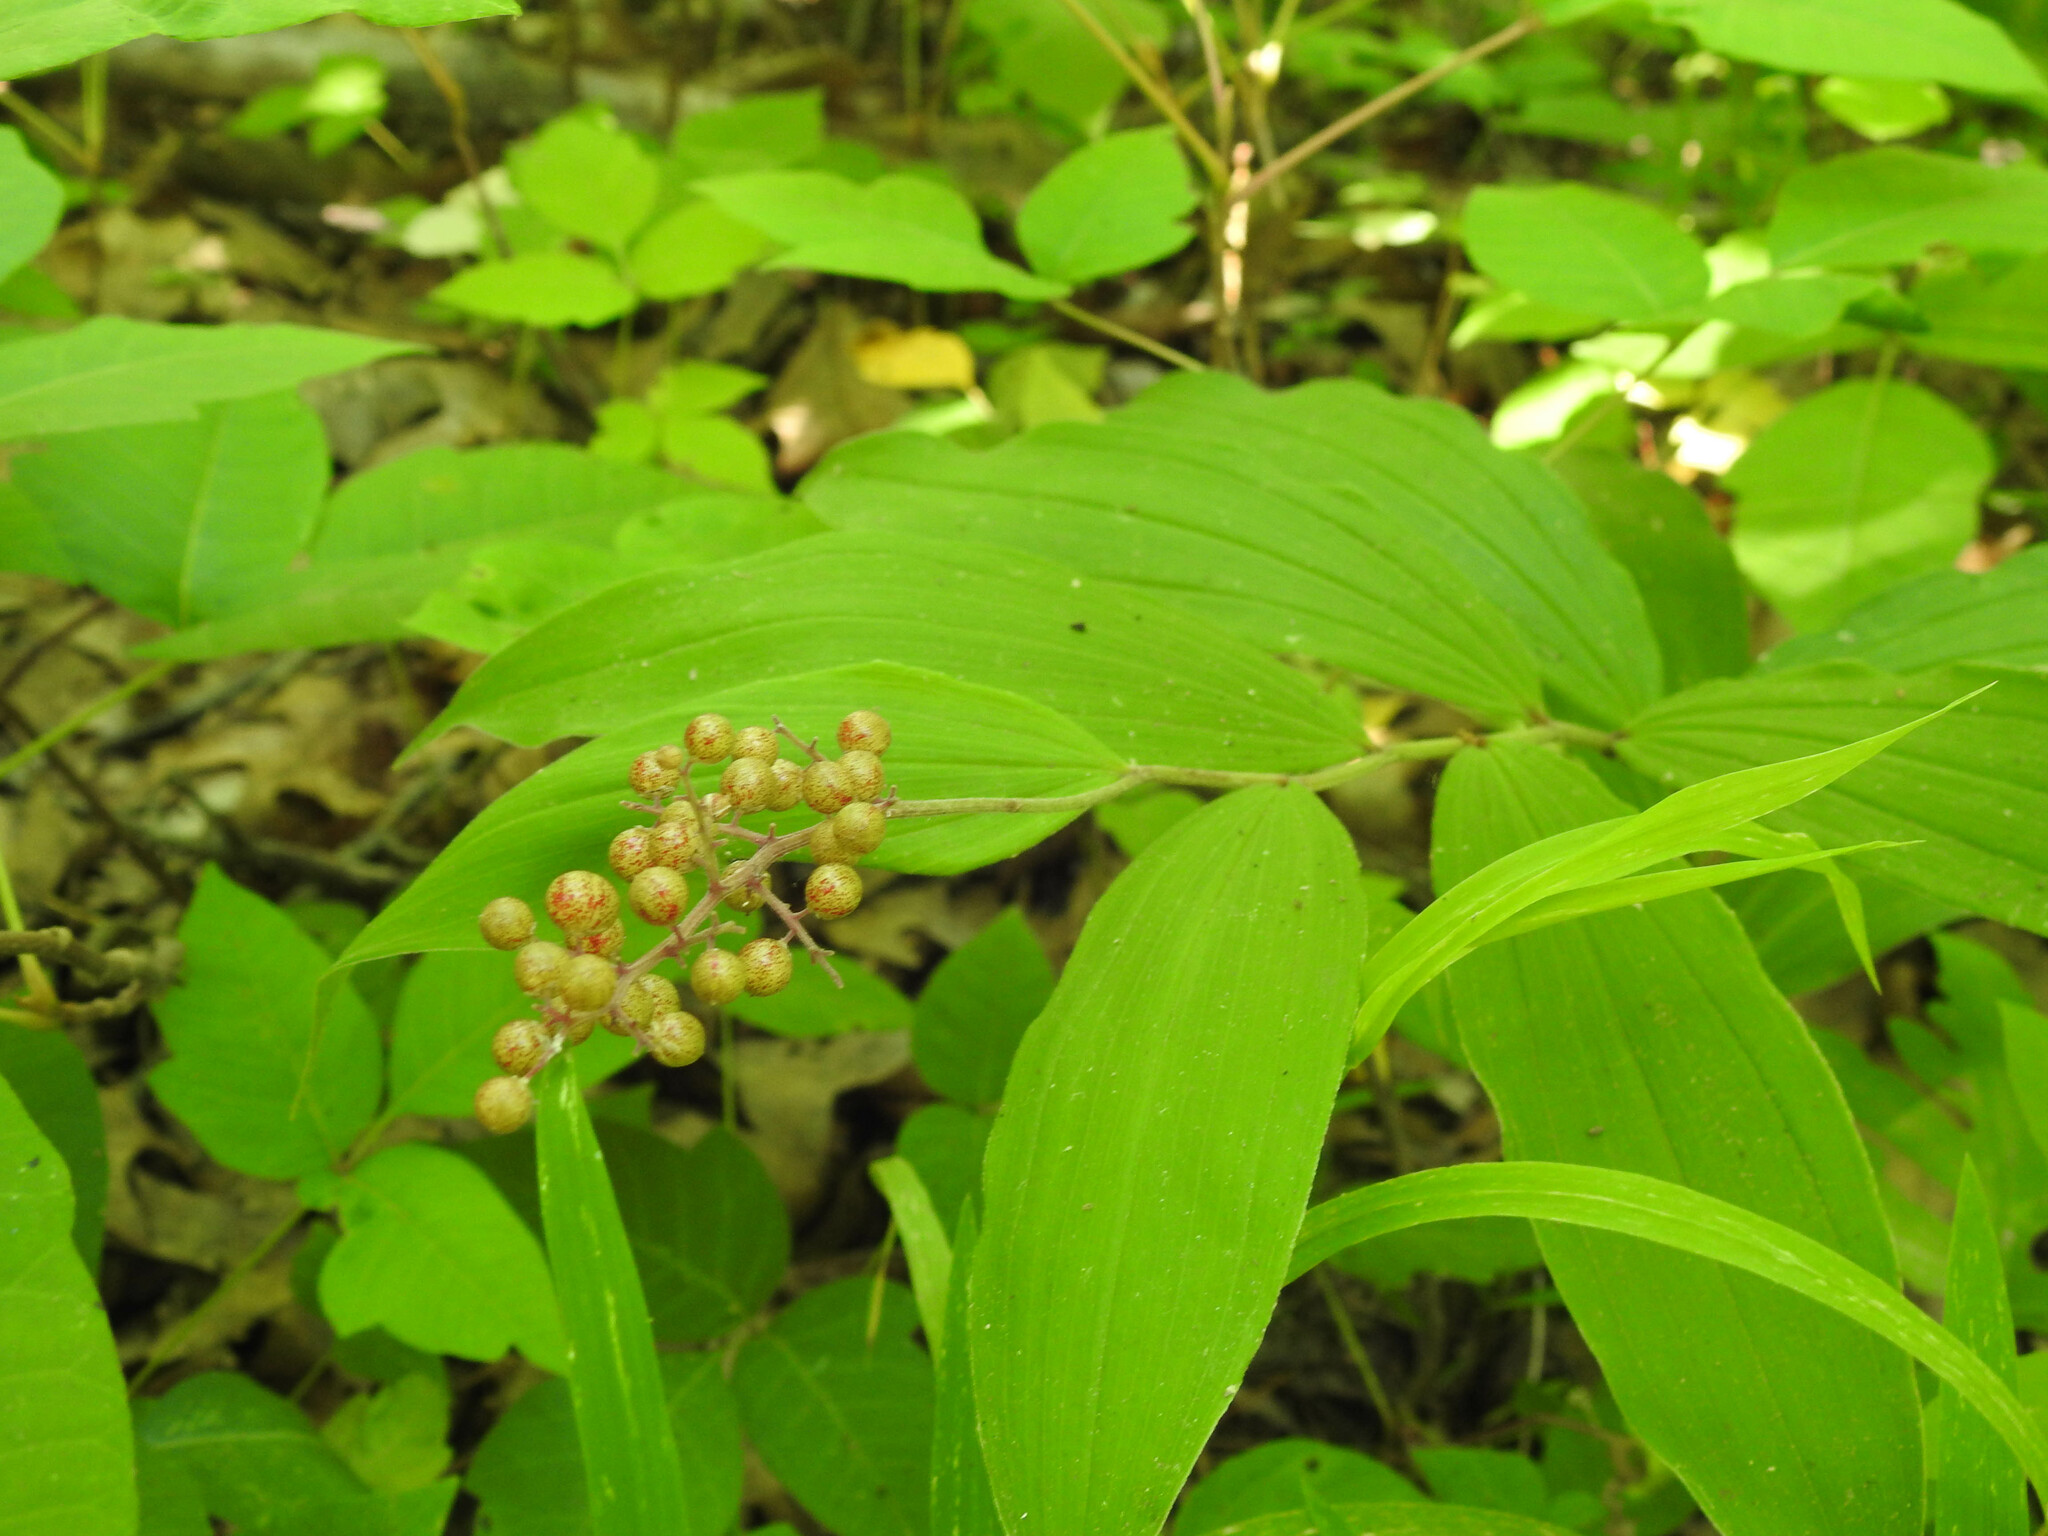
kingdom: Plantae
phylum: Tracheophyta
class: Liliopsida
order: Asparagales
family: Asparagaceae
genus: Maianthemum
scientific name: Maianthemum racemosum
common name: False spikenard
